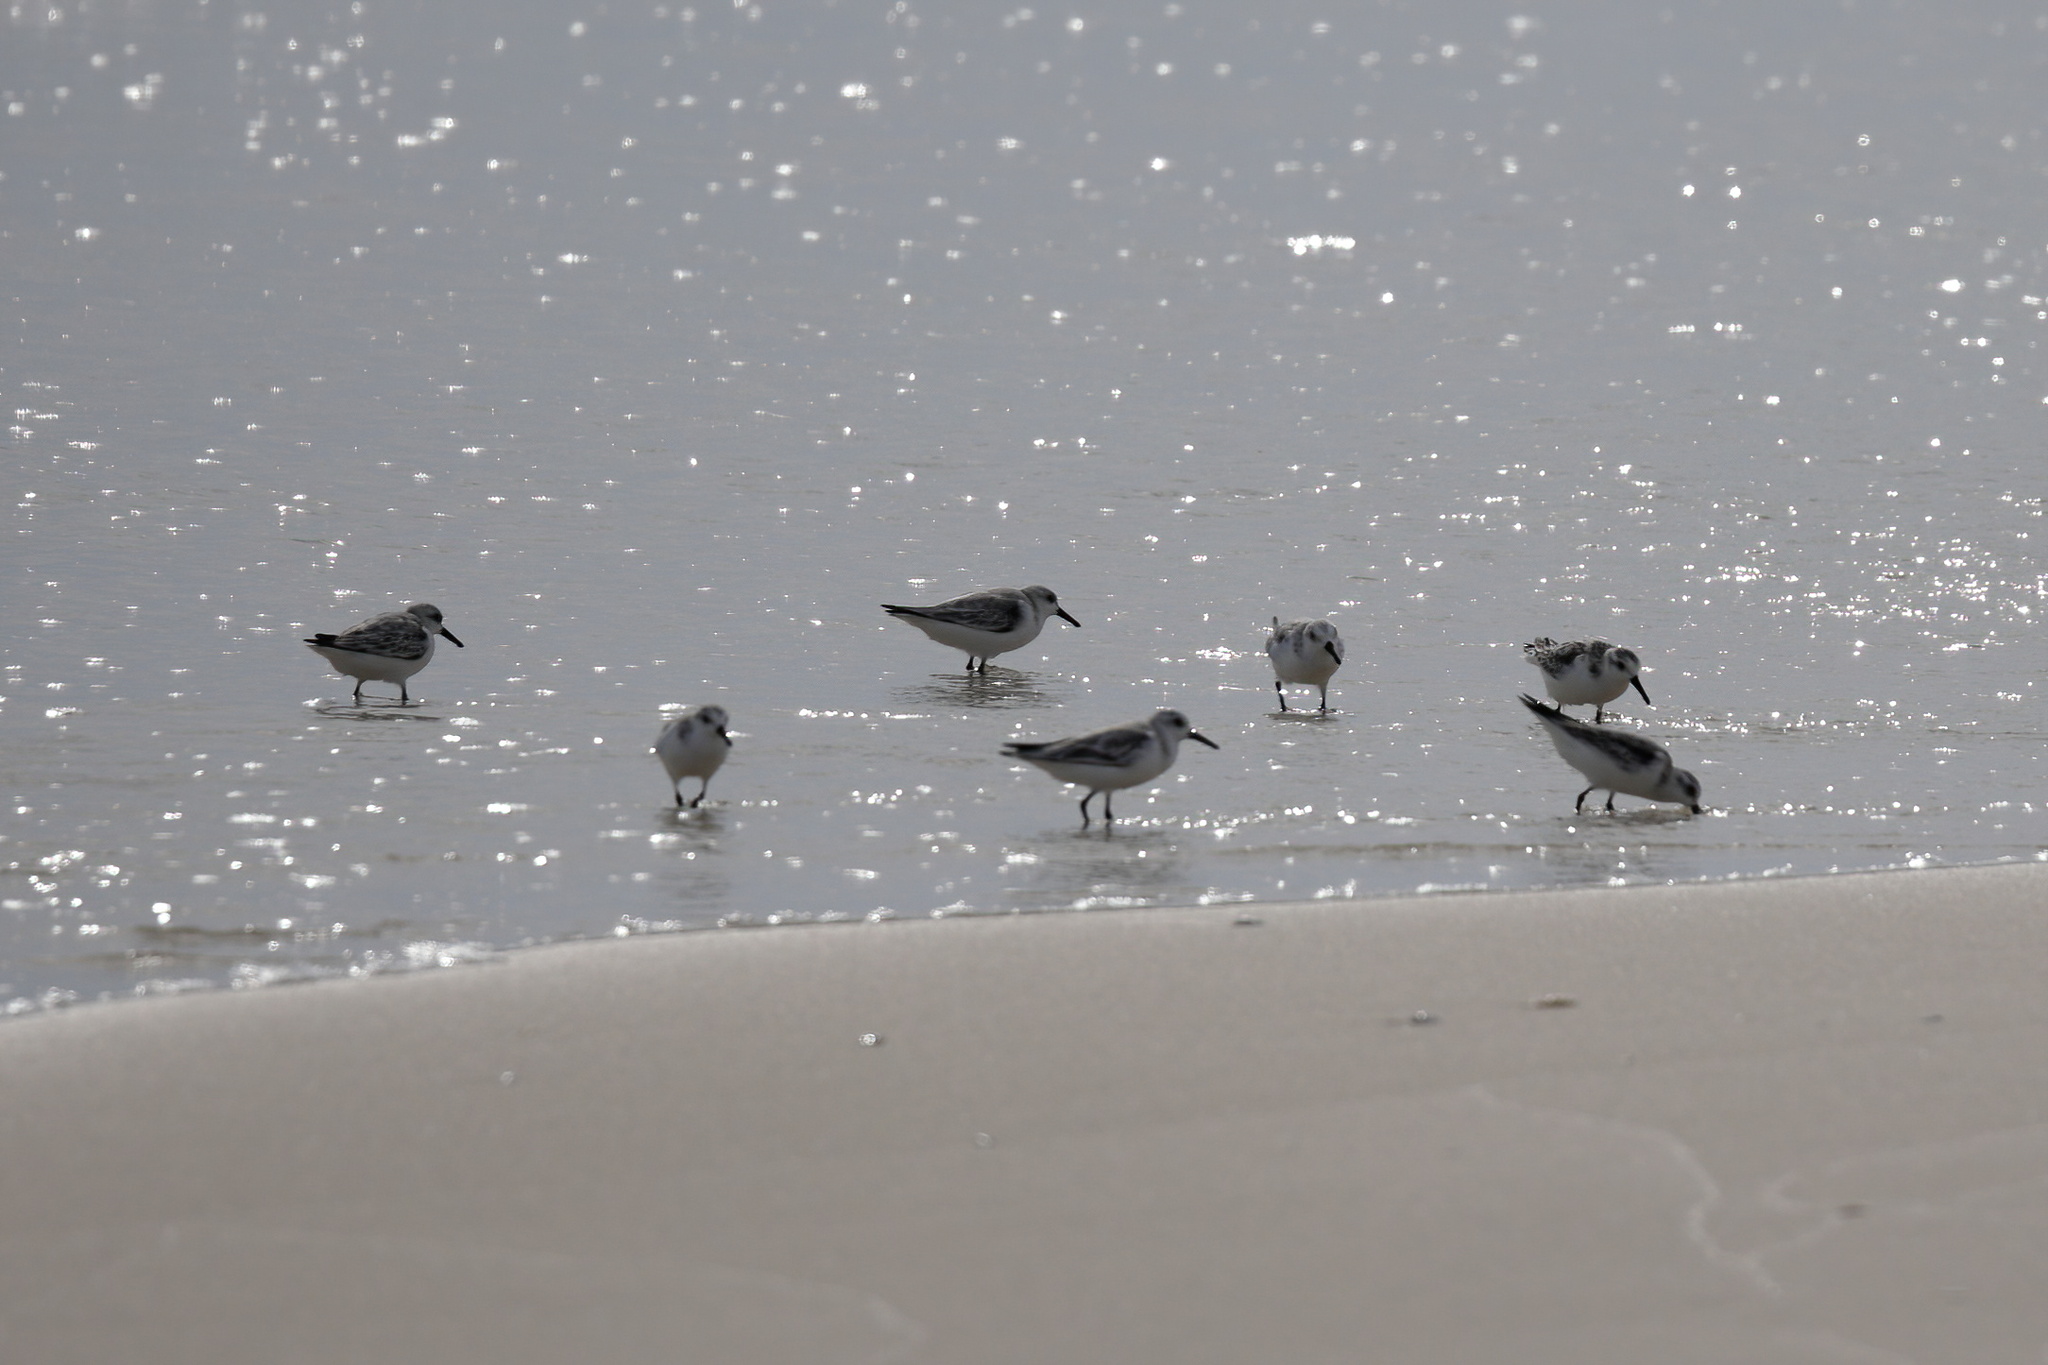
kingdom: Animalia
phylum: Chordata
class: Aves
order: Charadriiformes
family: Scolopacidae
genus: Calidris
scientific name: Calidris alba
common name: Sanderling
